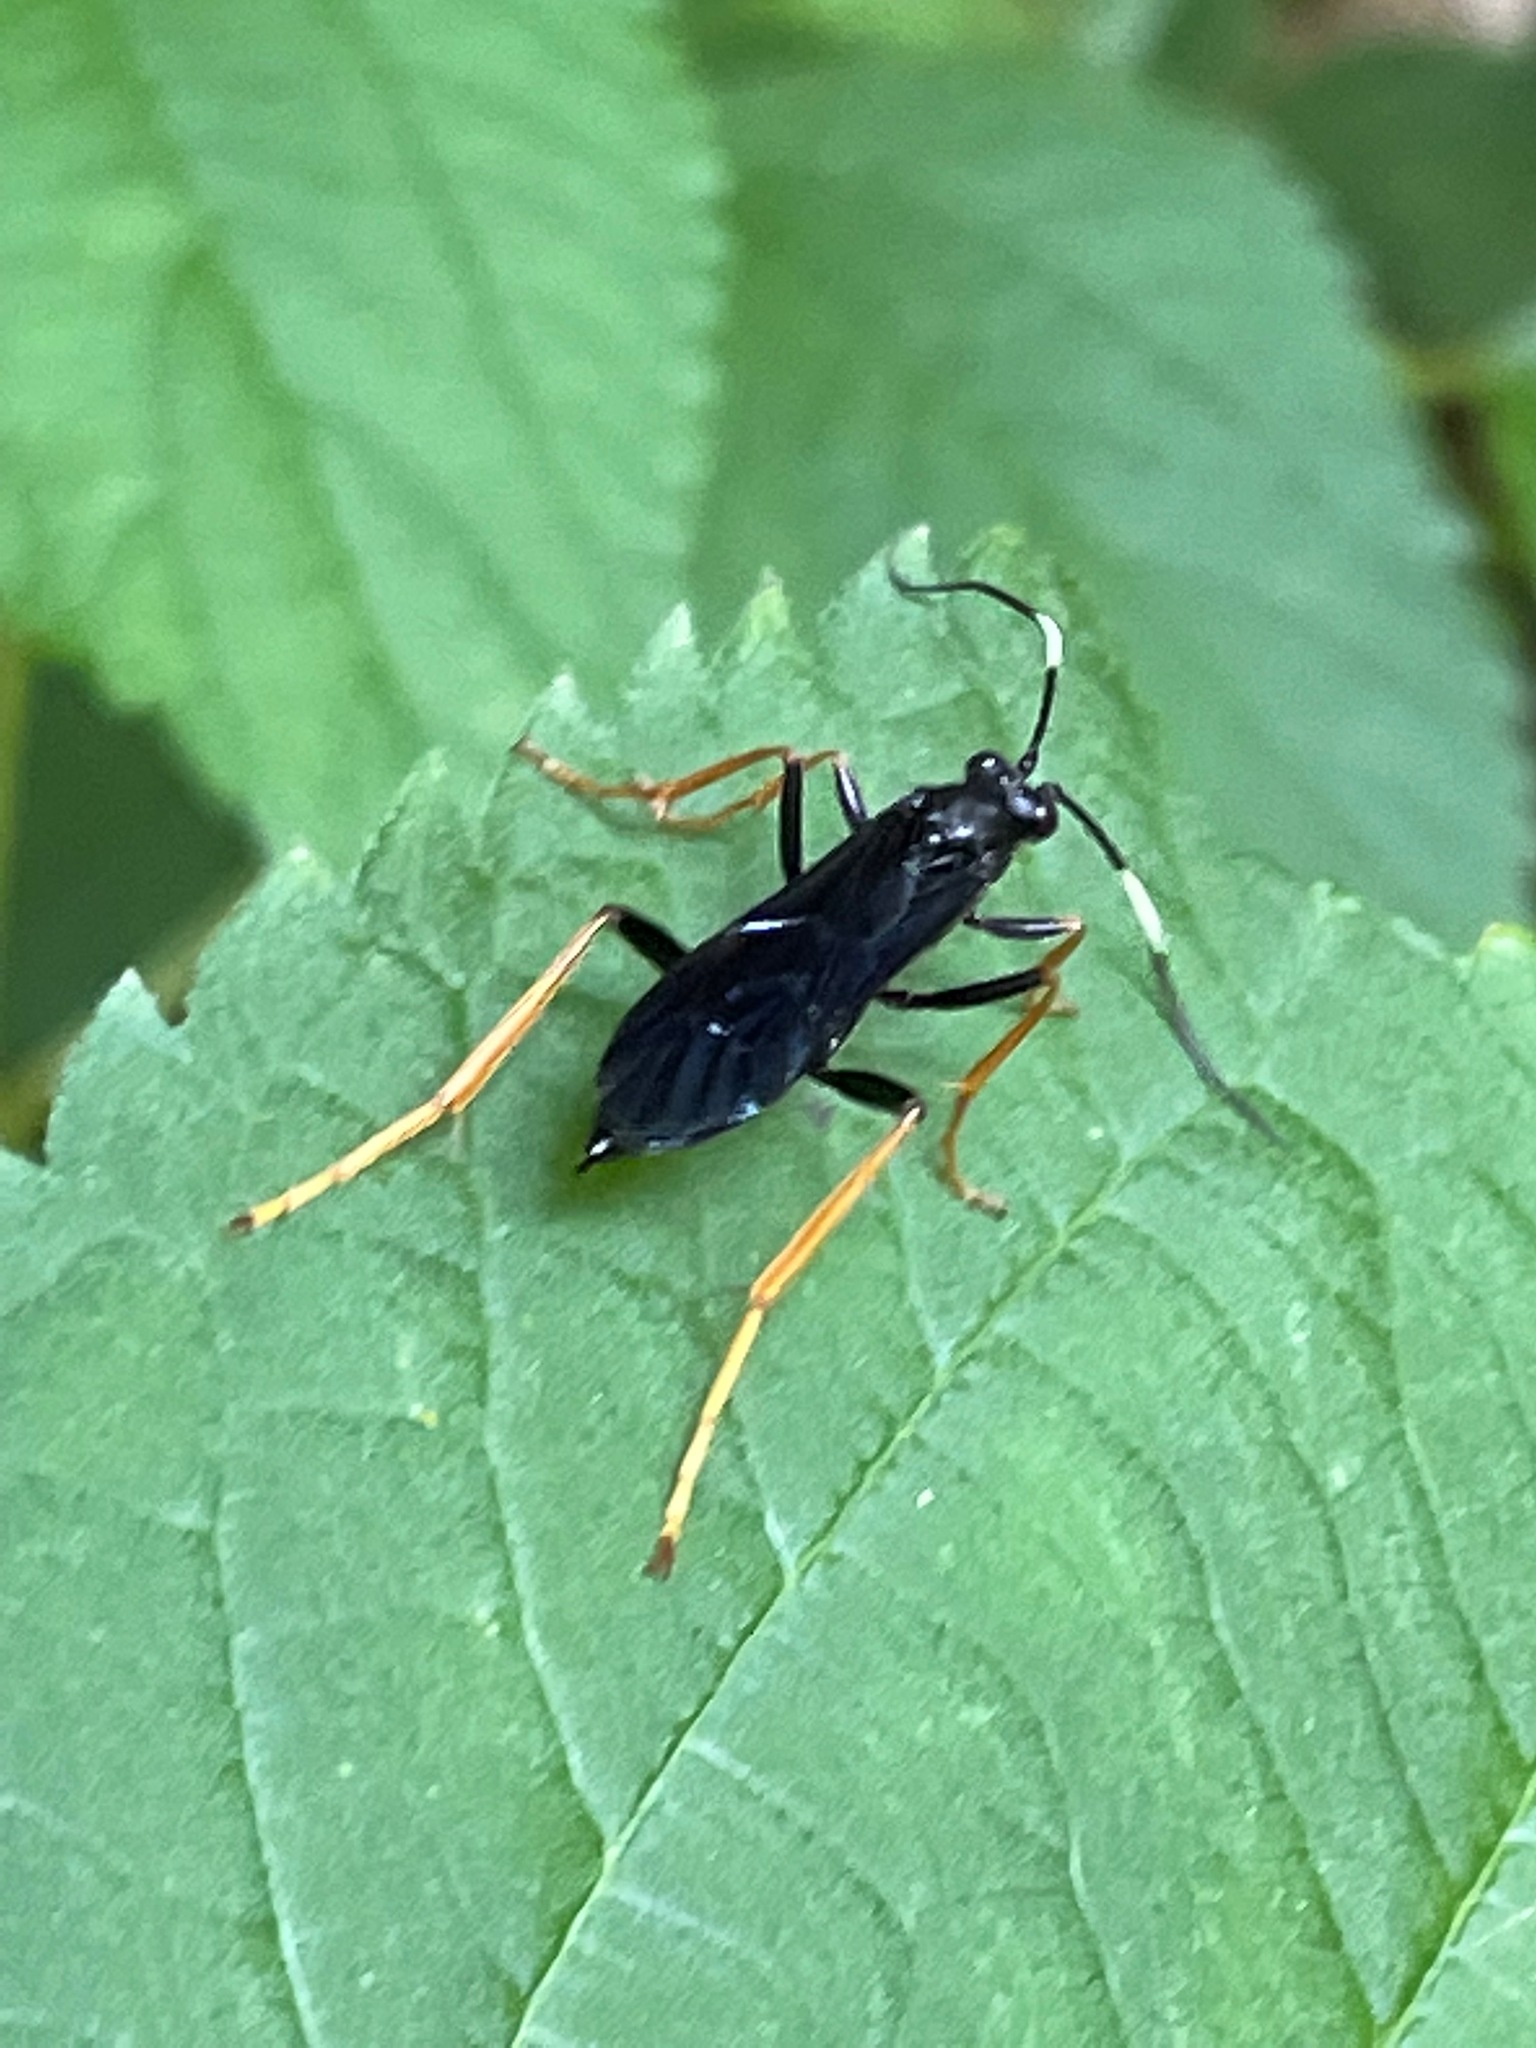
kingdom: Animalia
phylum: Arthropoda
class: Insecta
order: Hymenoptera
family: Ichneumonidae
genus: Hoplismenus
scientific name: Hoplismenus morulus
